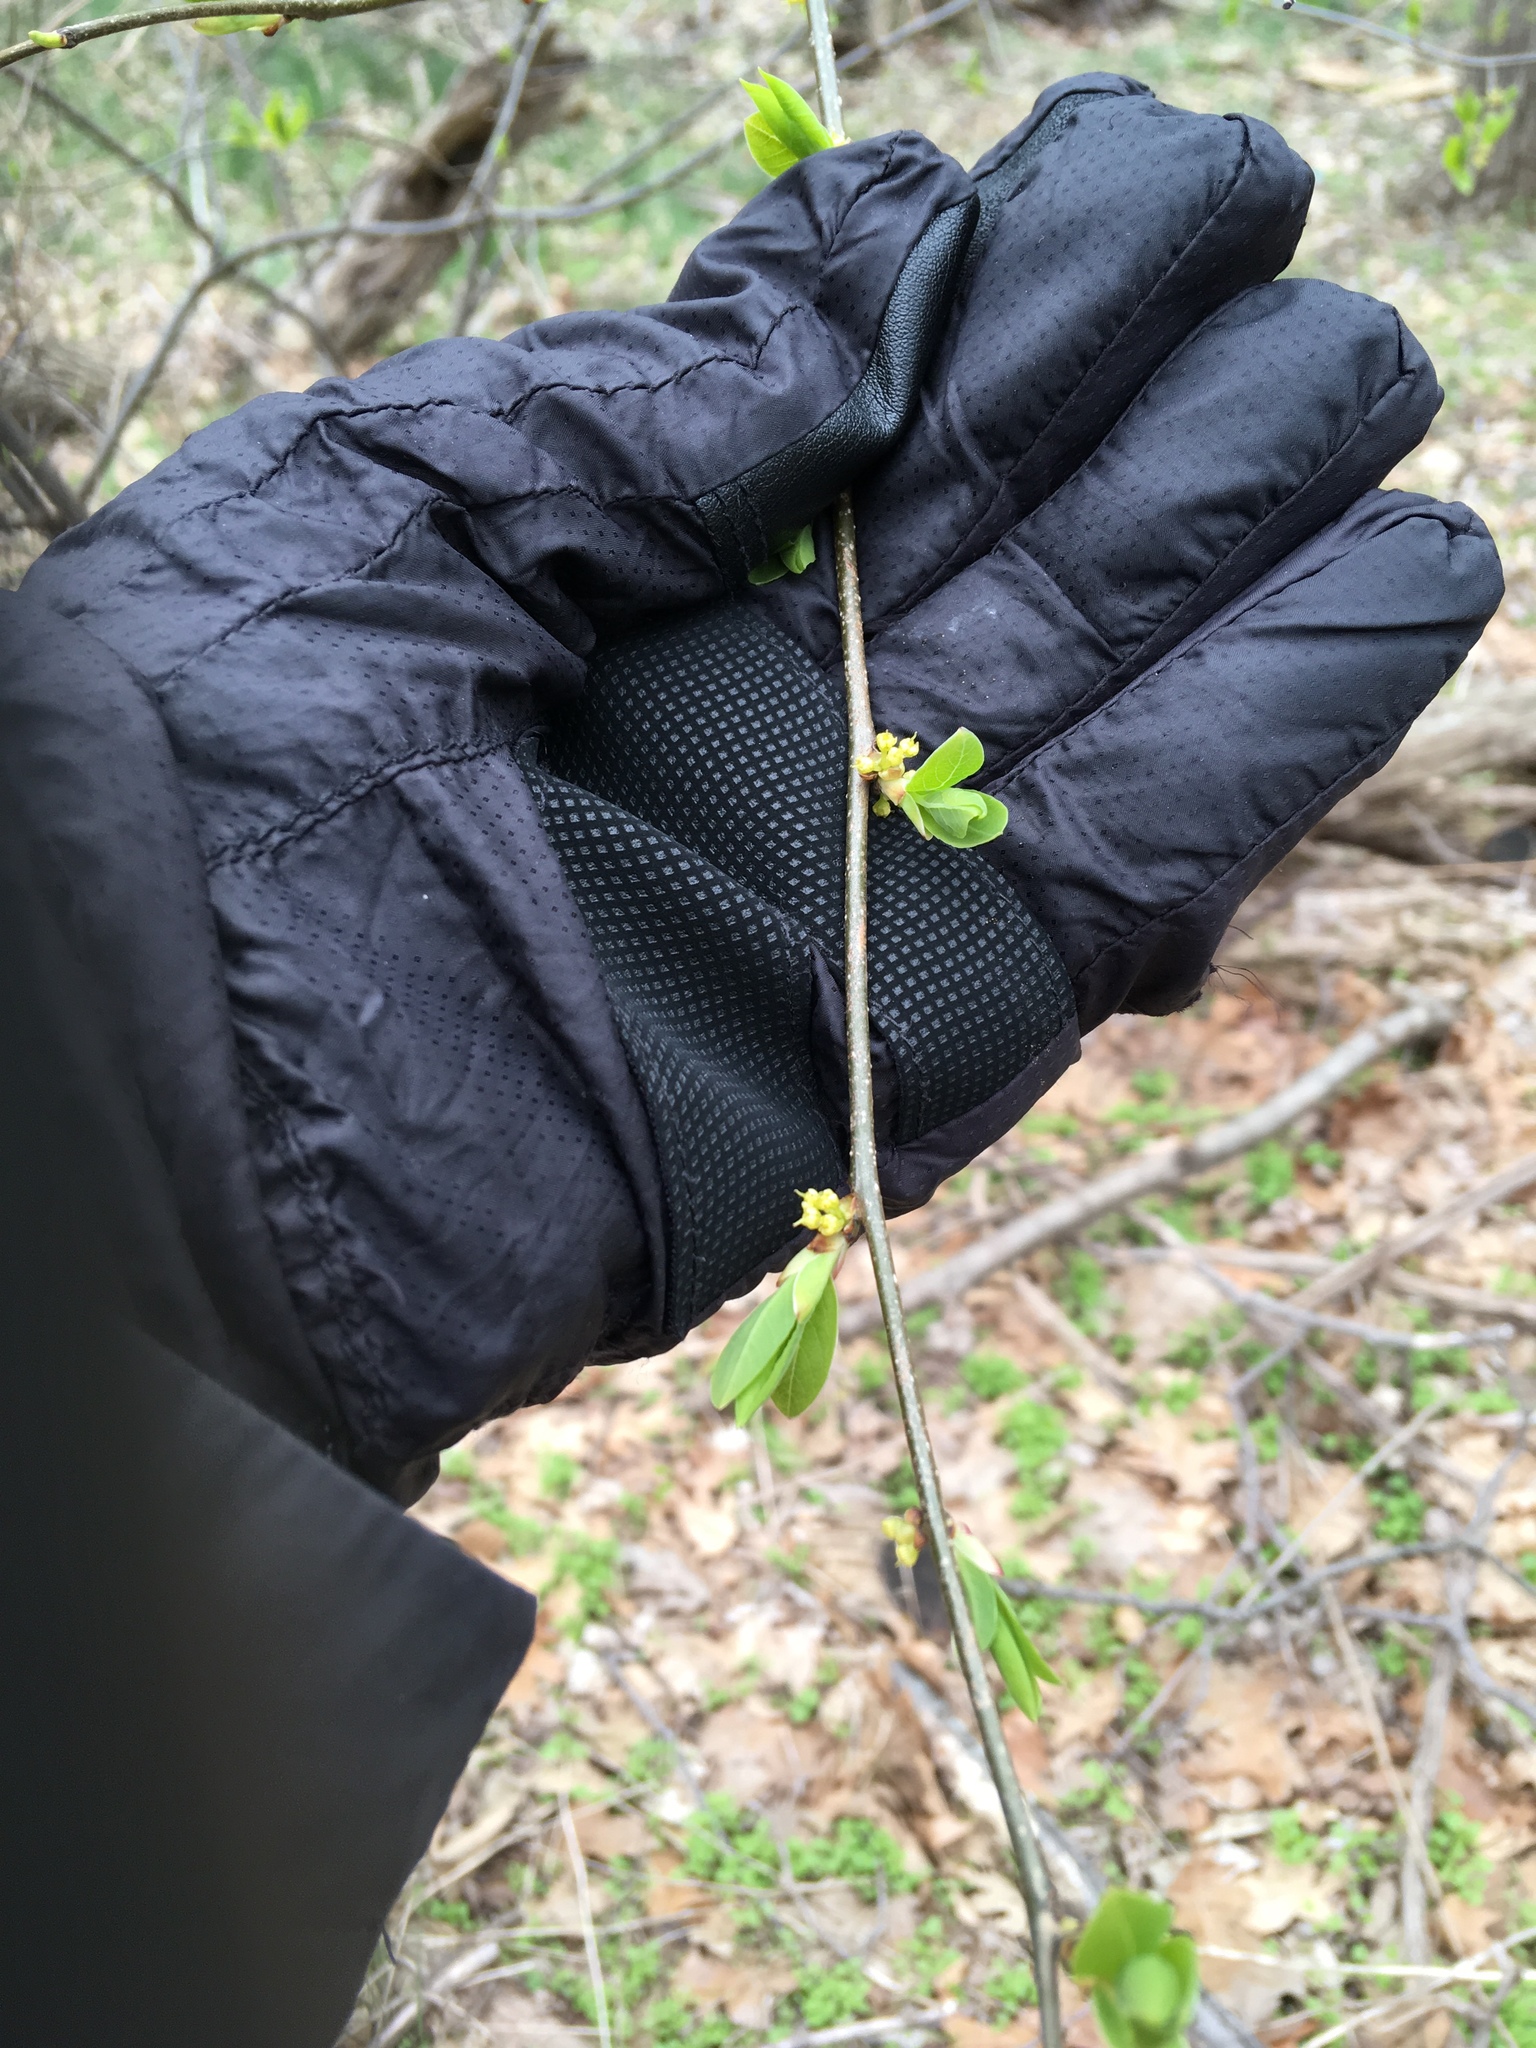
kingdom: Plantae
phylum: Tracheophyta
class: Magnoliopsida
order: Laurales
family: Lauraceae
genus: Lindera
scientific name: Lindera benzoin
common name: Spicebush
